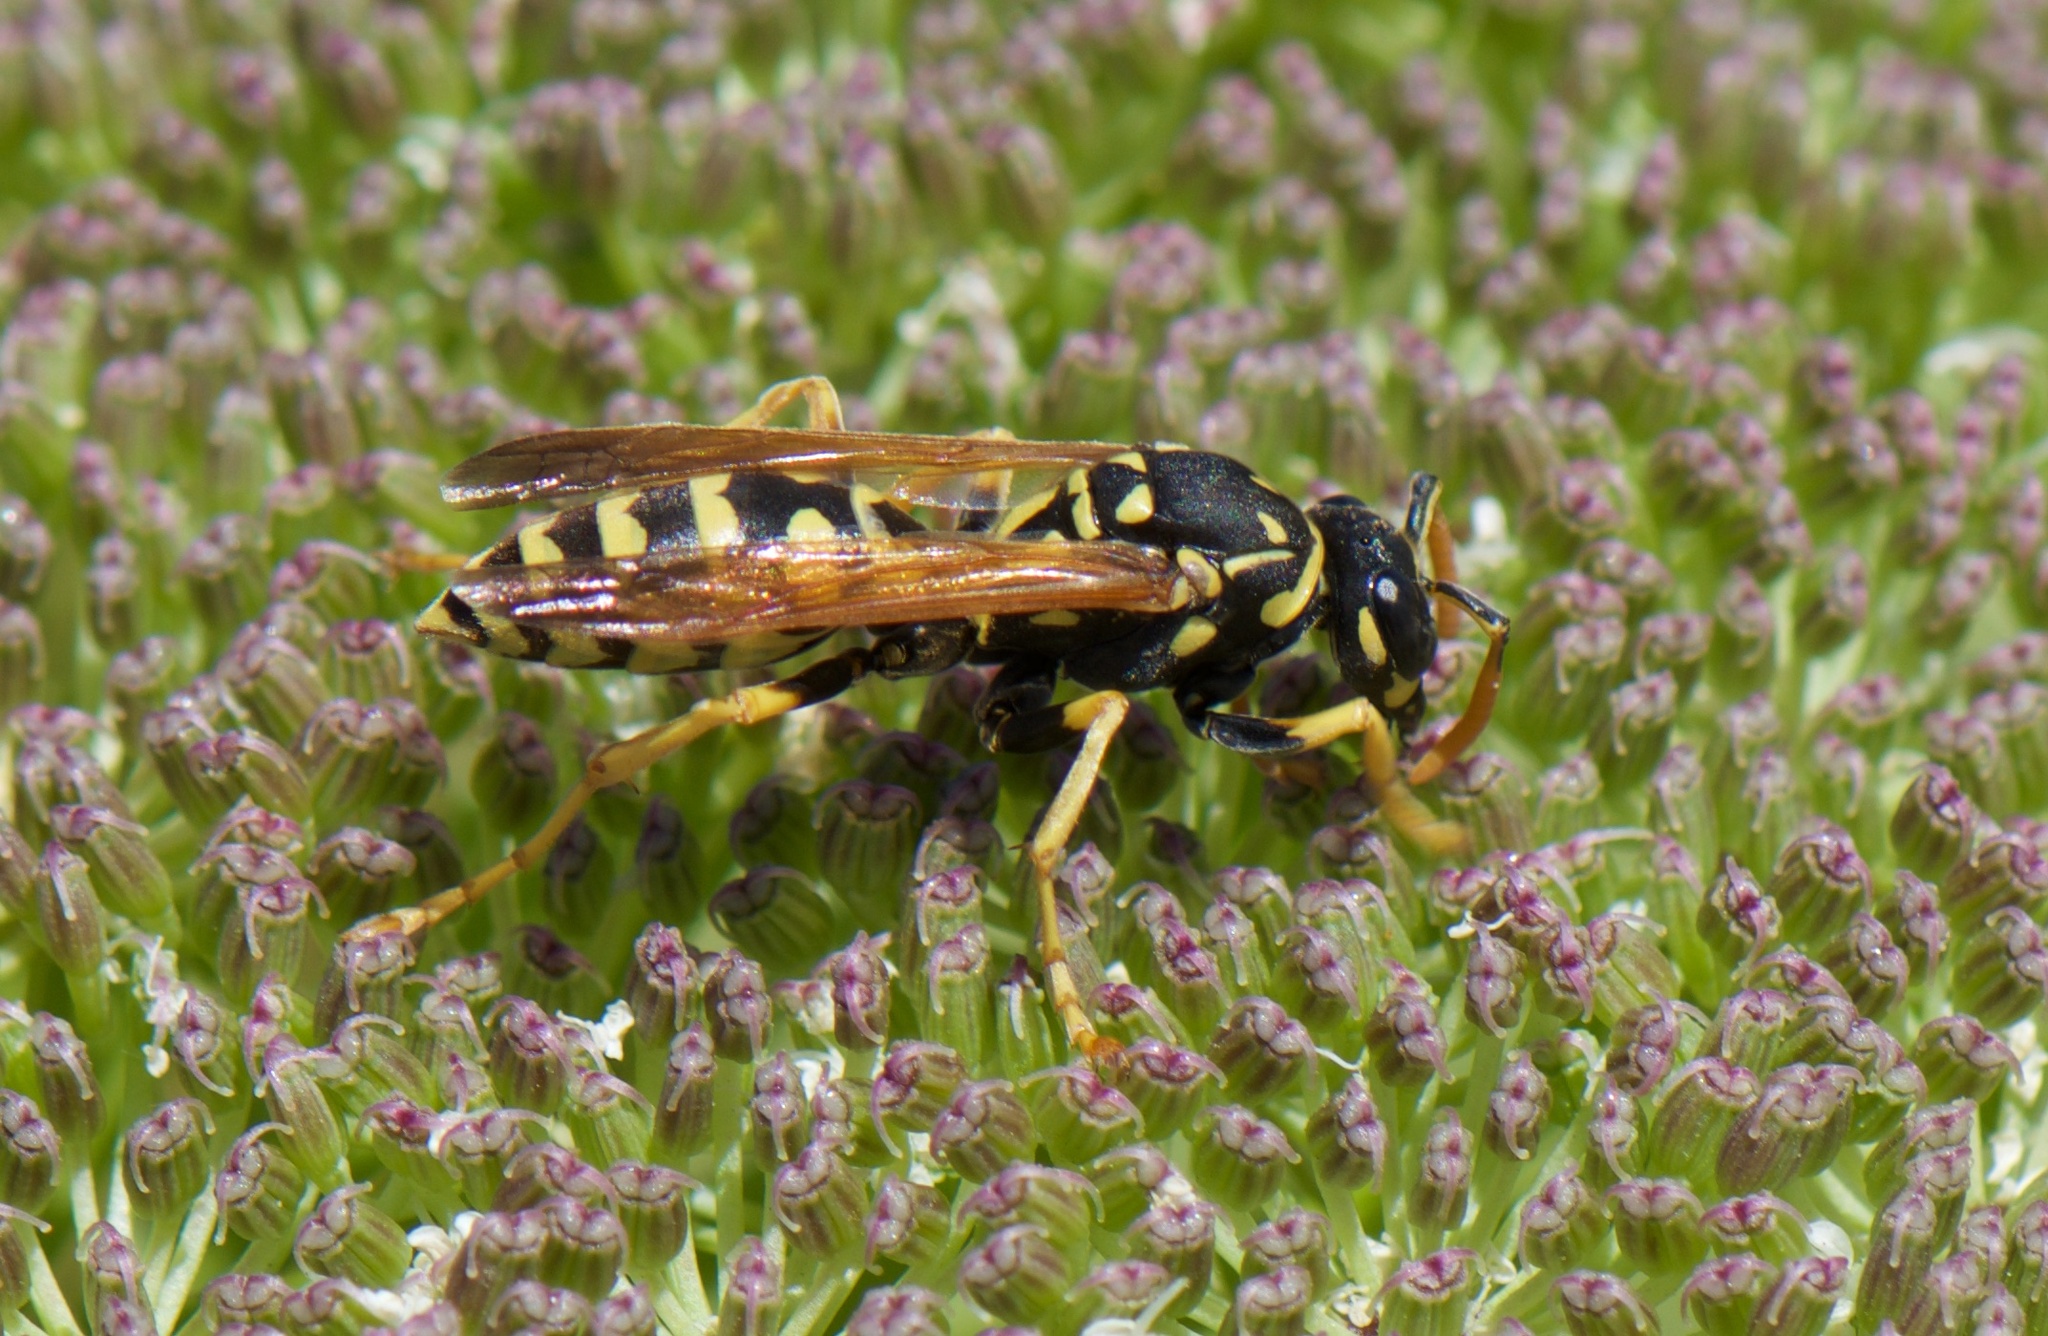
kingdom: Animalia
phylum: Arthropoda
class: Insecta
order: Hymenoptera
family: Eumenidae
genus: Polistes
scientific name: Polistes dominula
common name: Paper wasp
